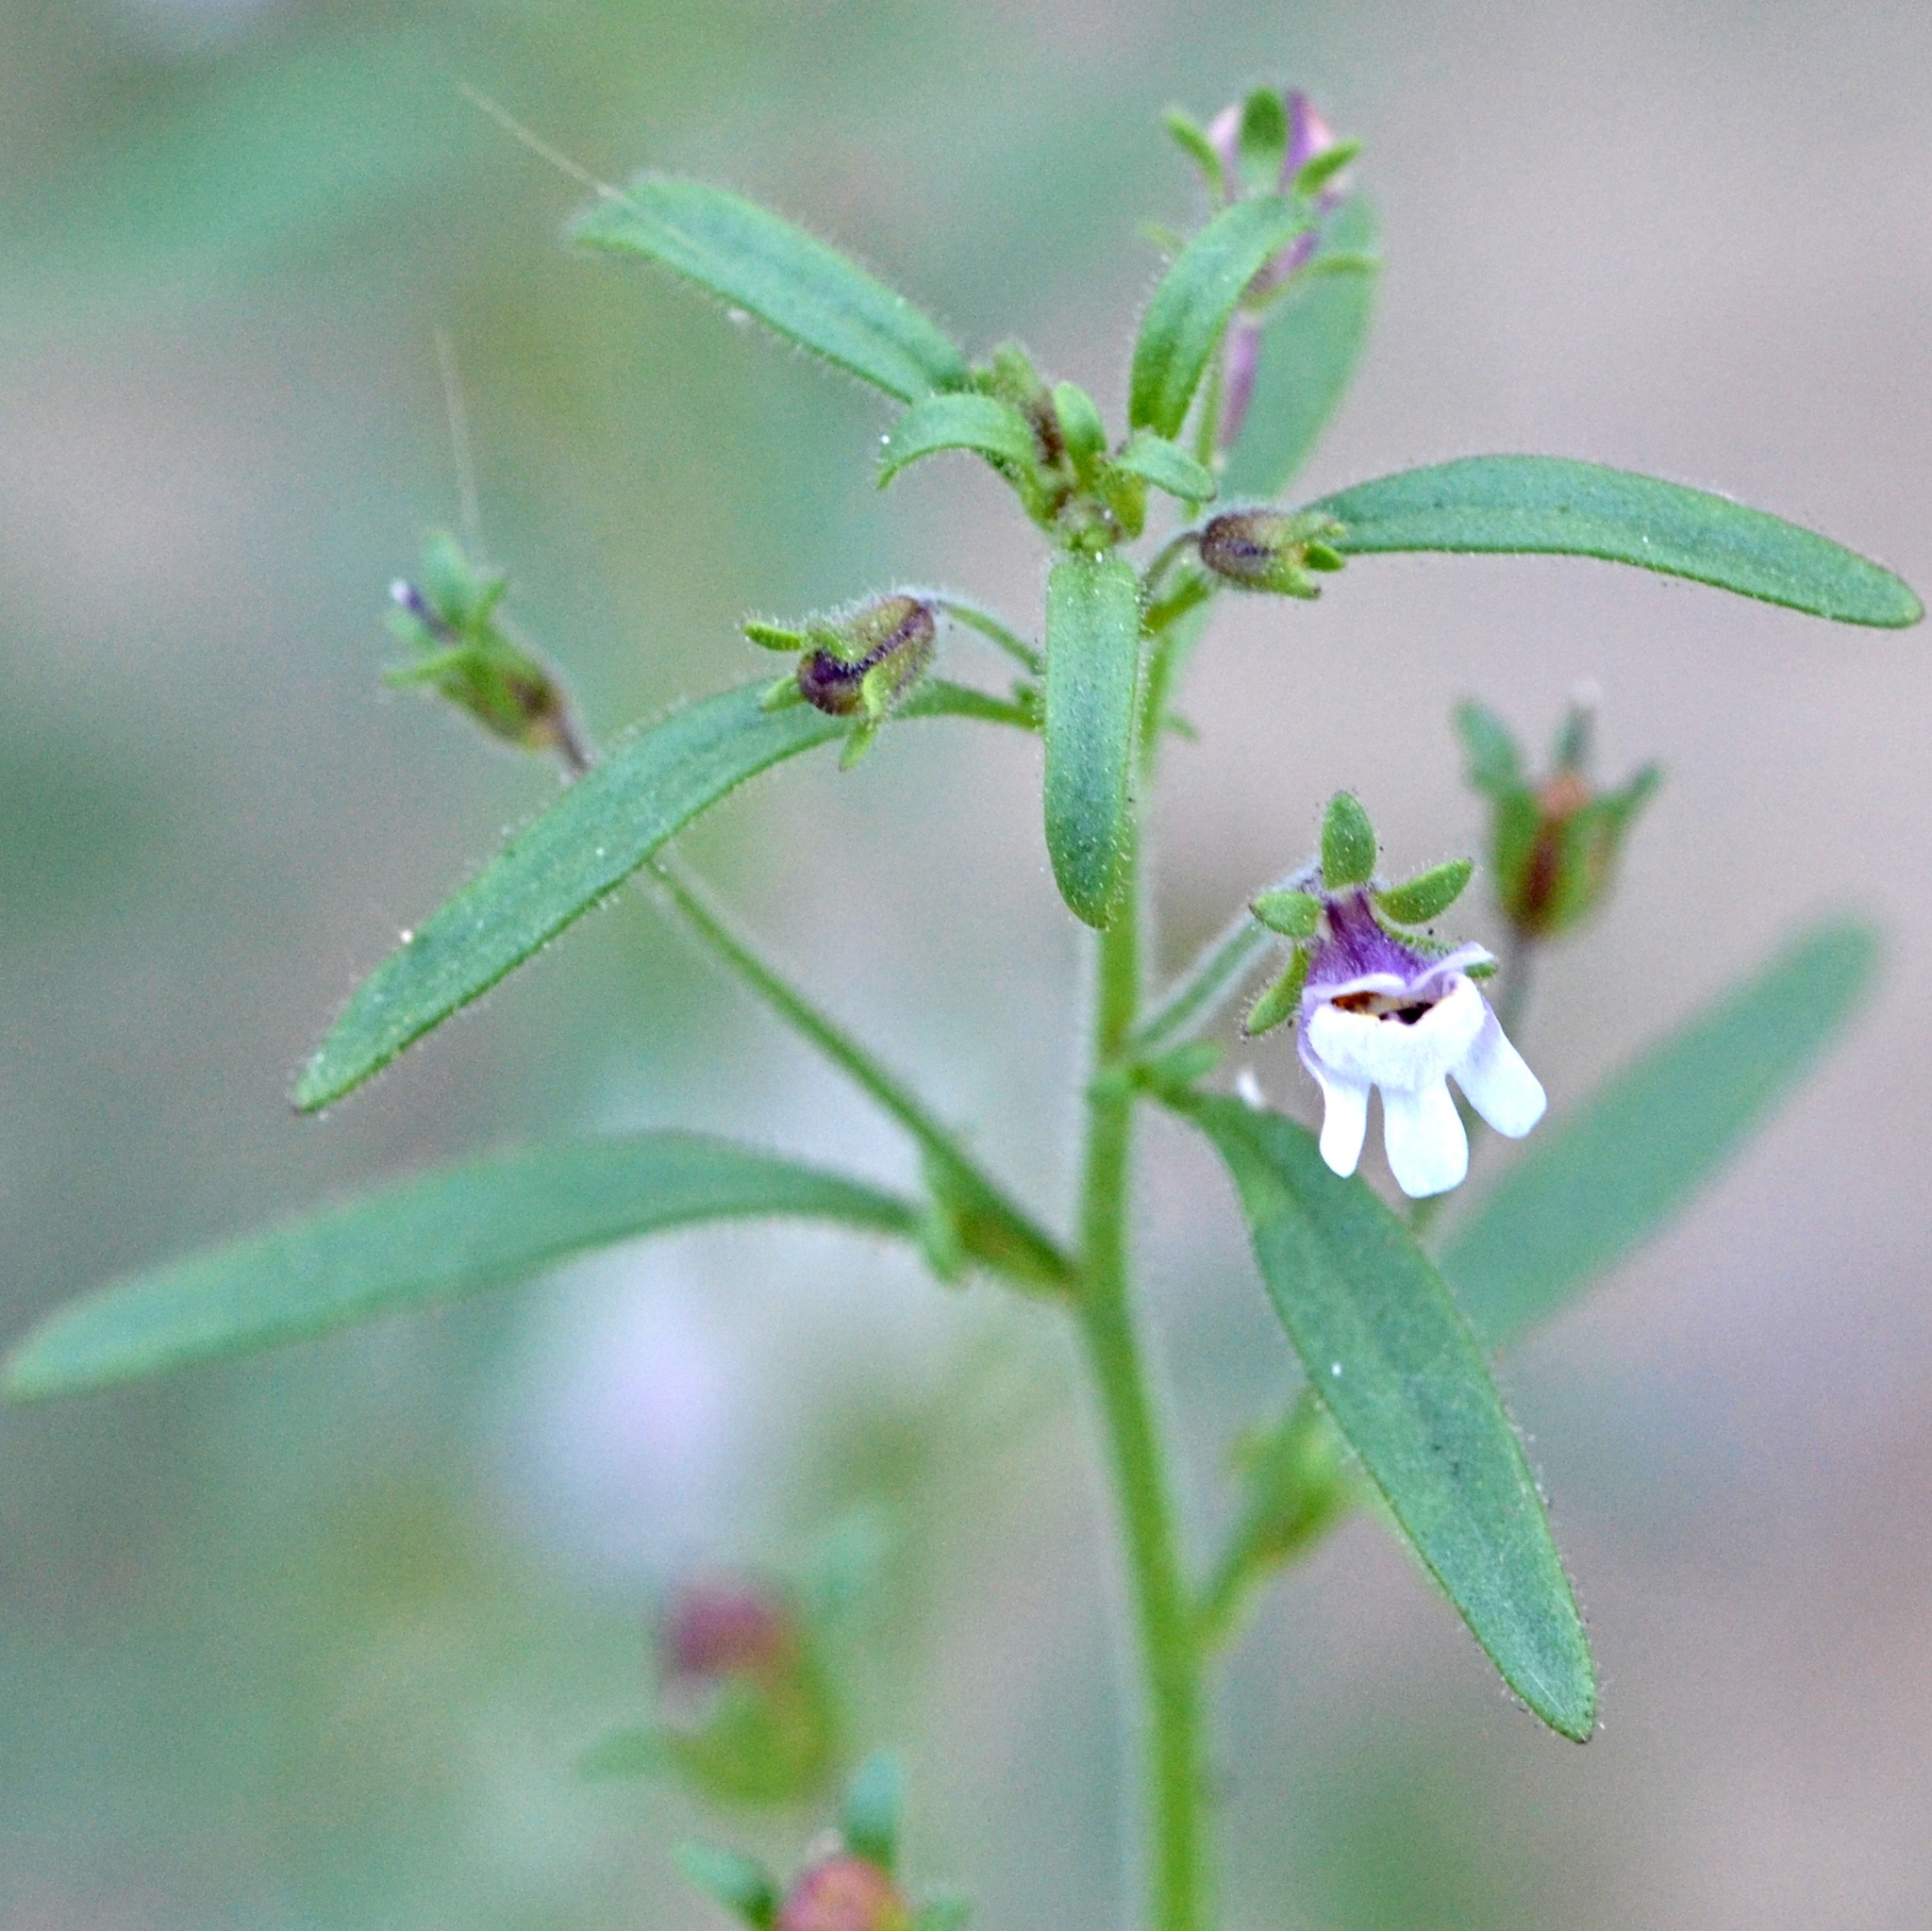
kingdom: Plantae
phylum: Tracheophyta
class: Magnoliopsida
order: Lamiales
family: Plantaginaceae
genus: Chaenorhinum
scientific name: Chaenorhinum minus
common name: Dwarf snapdragon
